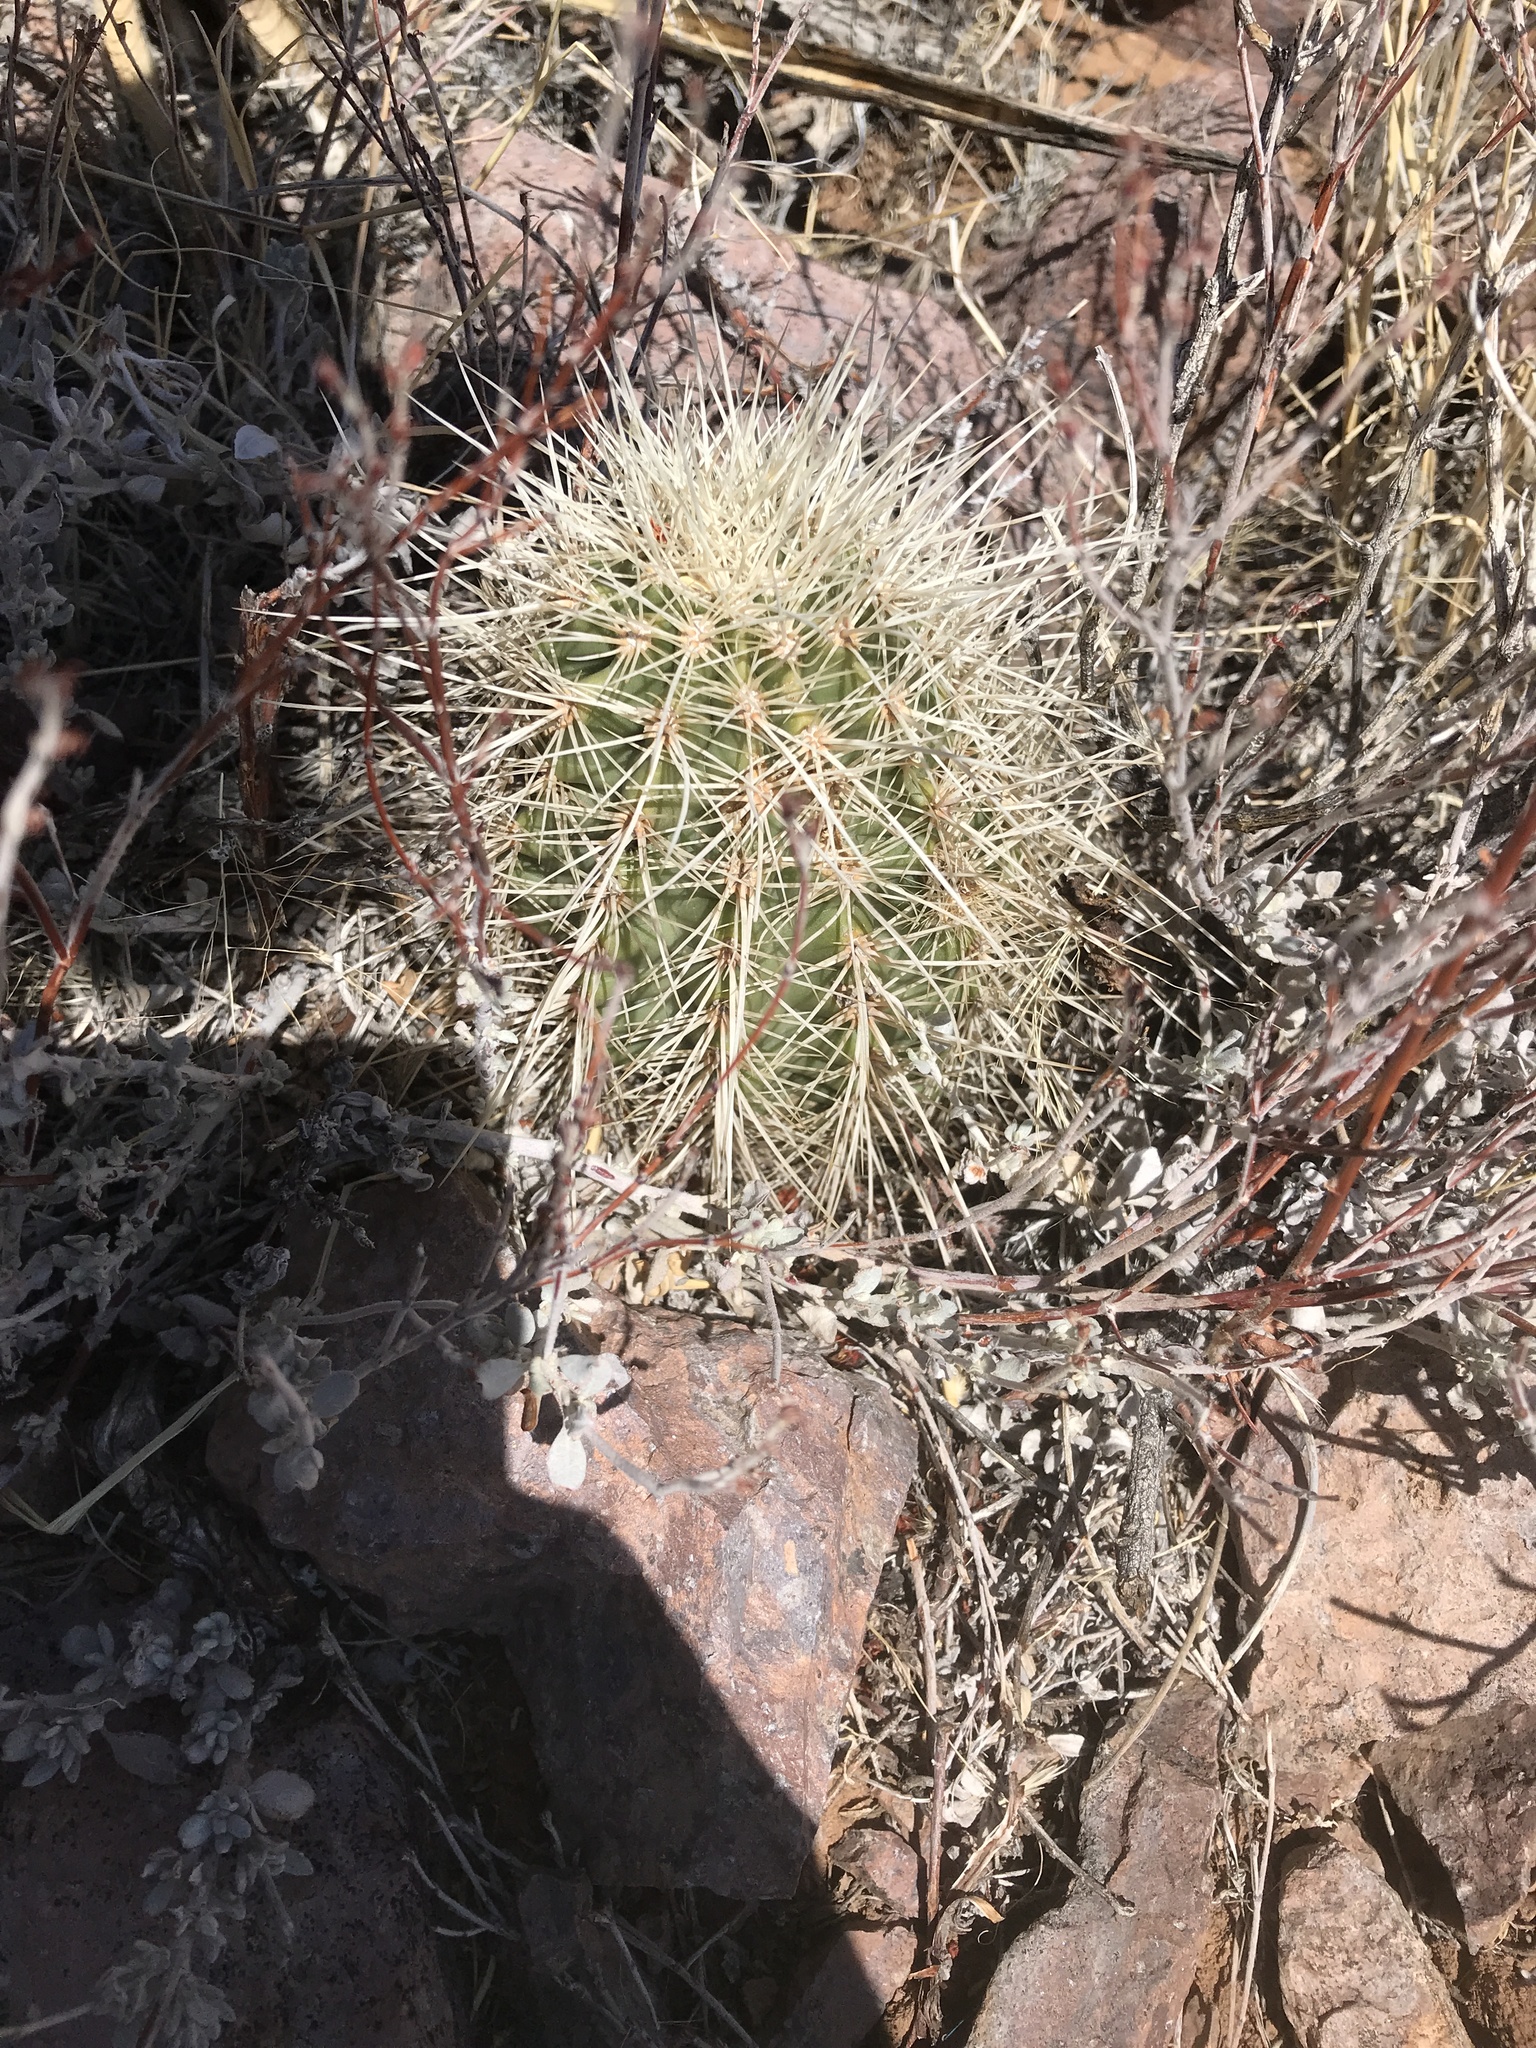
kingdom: Plantae
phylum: Tracheophyta
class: Magnoliopsida
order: Caryophyllales
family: Cactaceae
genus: Echinocereus
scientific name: Echinocereus coccineus
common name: Scarlet hedgehog cactus
